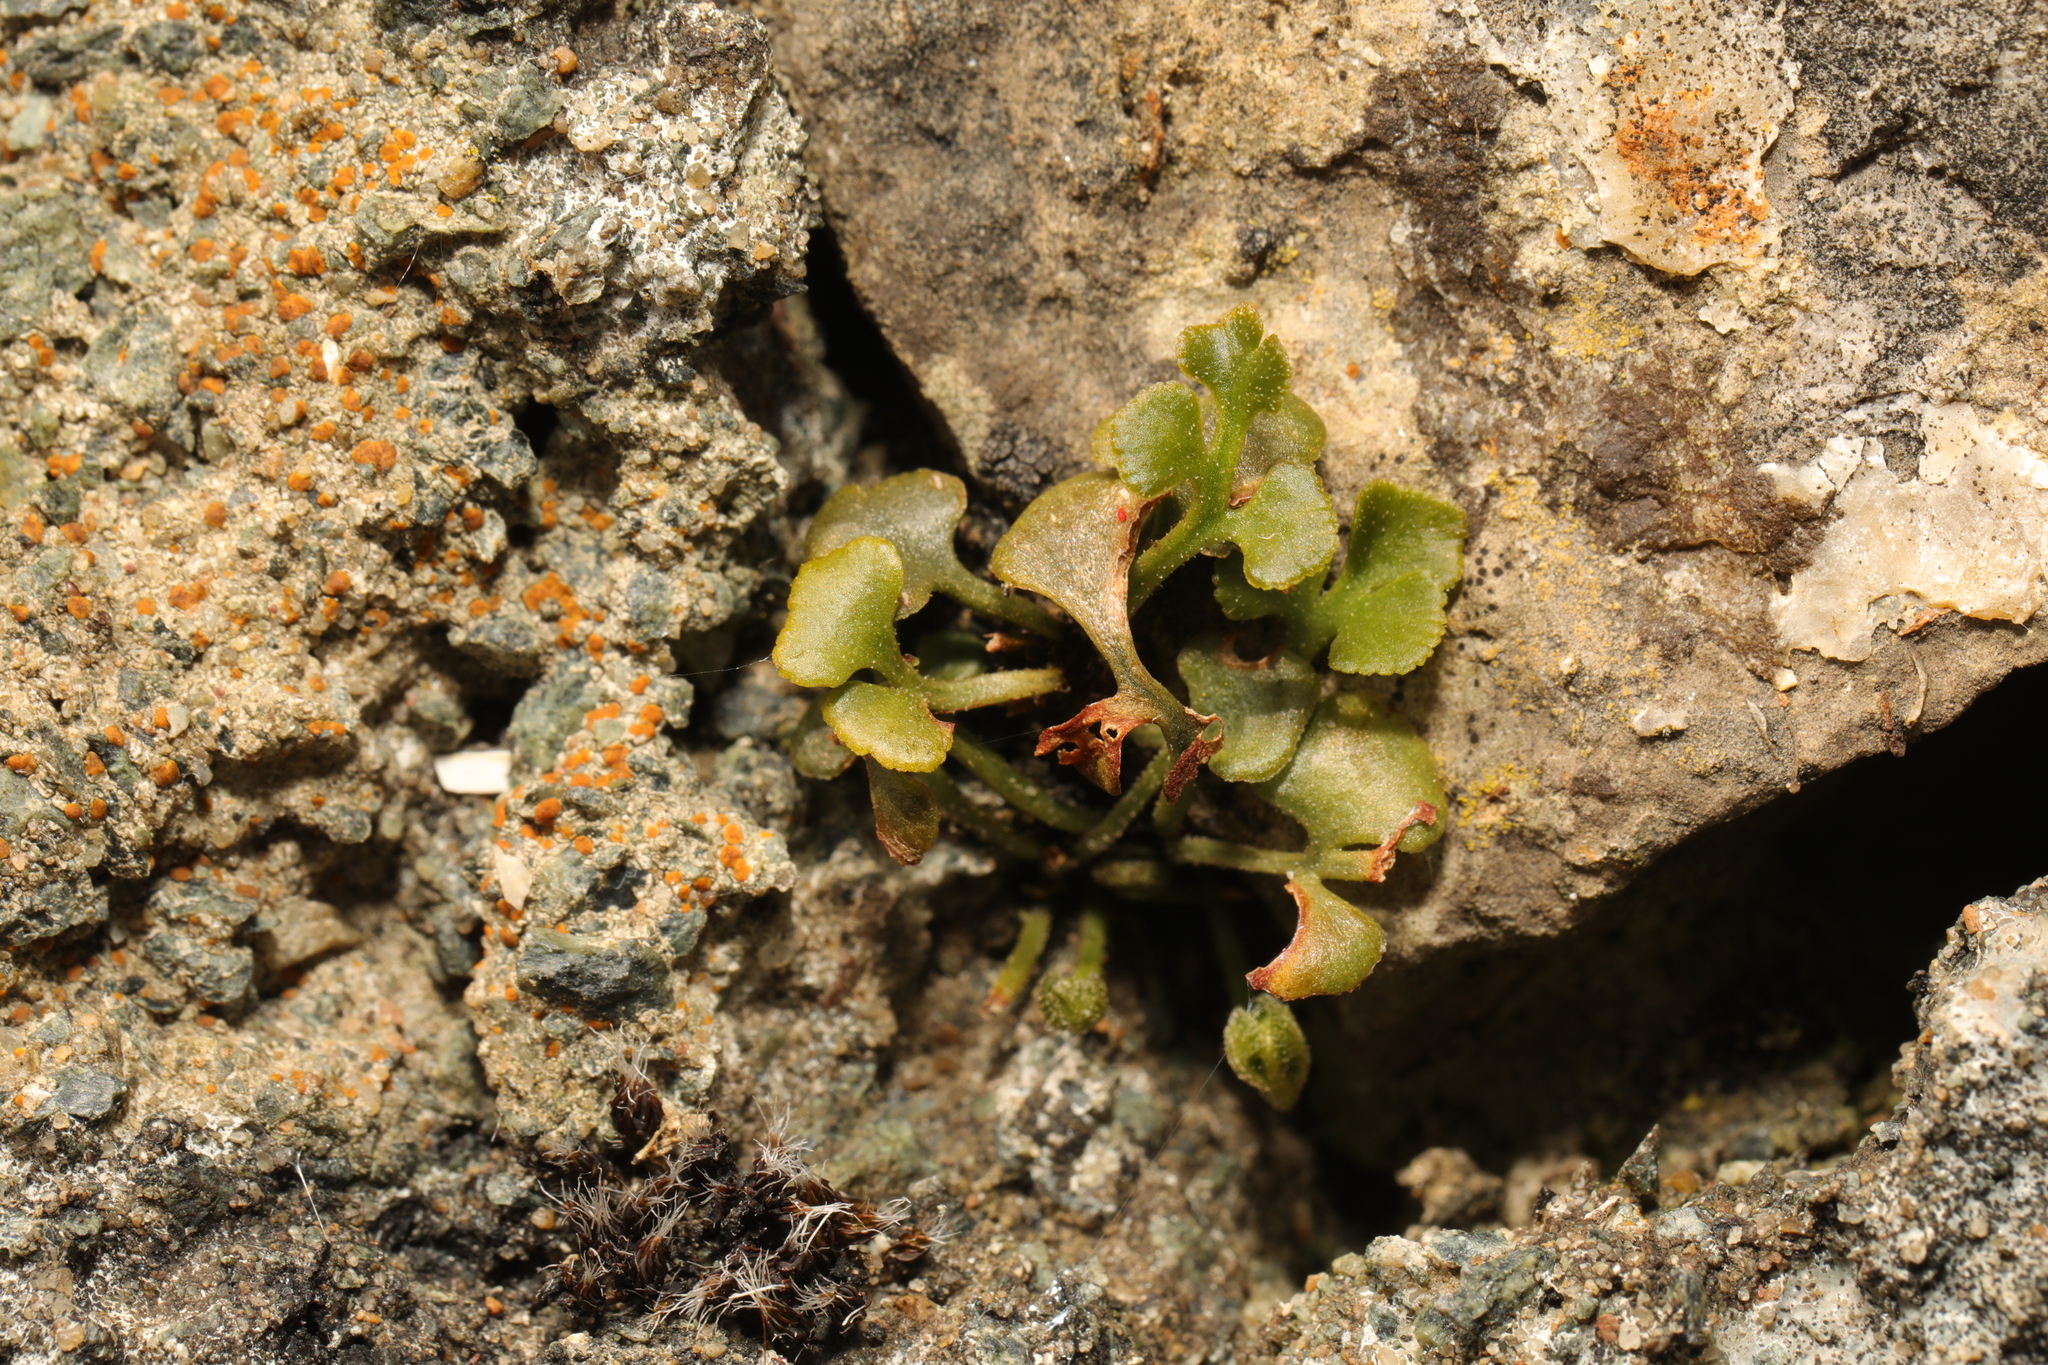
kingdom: Plantae
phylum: Tracheophyta
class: Polypodiopsida
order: Polypodiales
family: Aspleniaceae
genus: Asplenium
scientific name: Asplenium ruta-muraria
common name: Wall-rue
